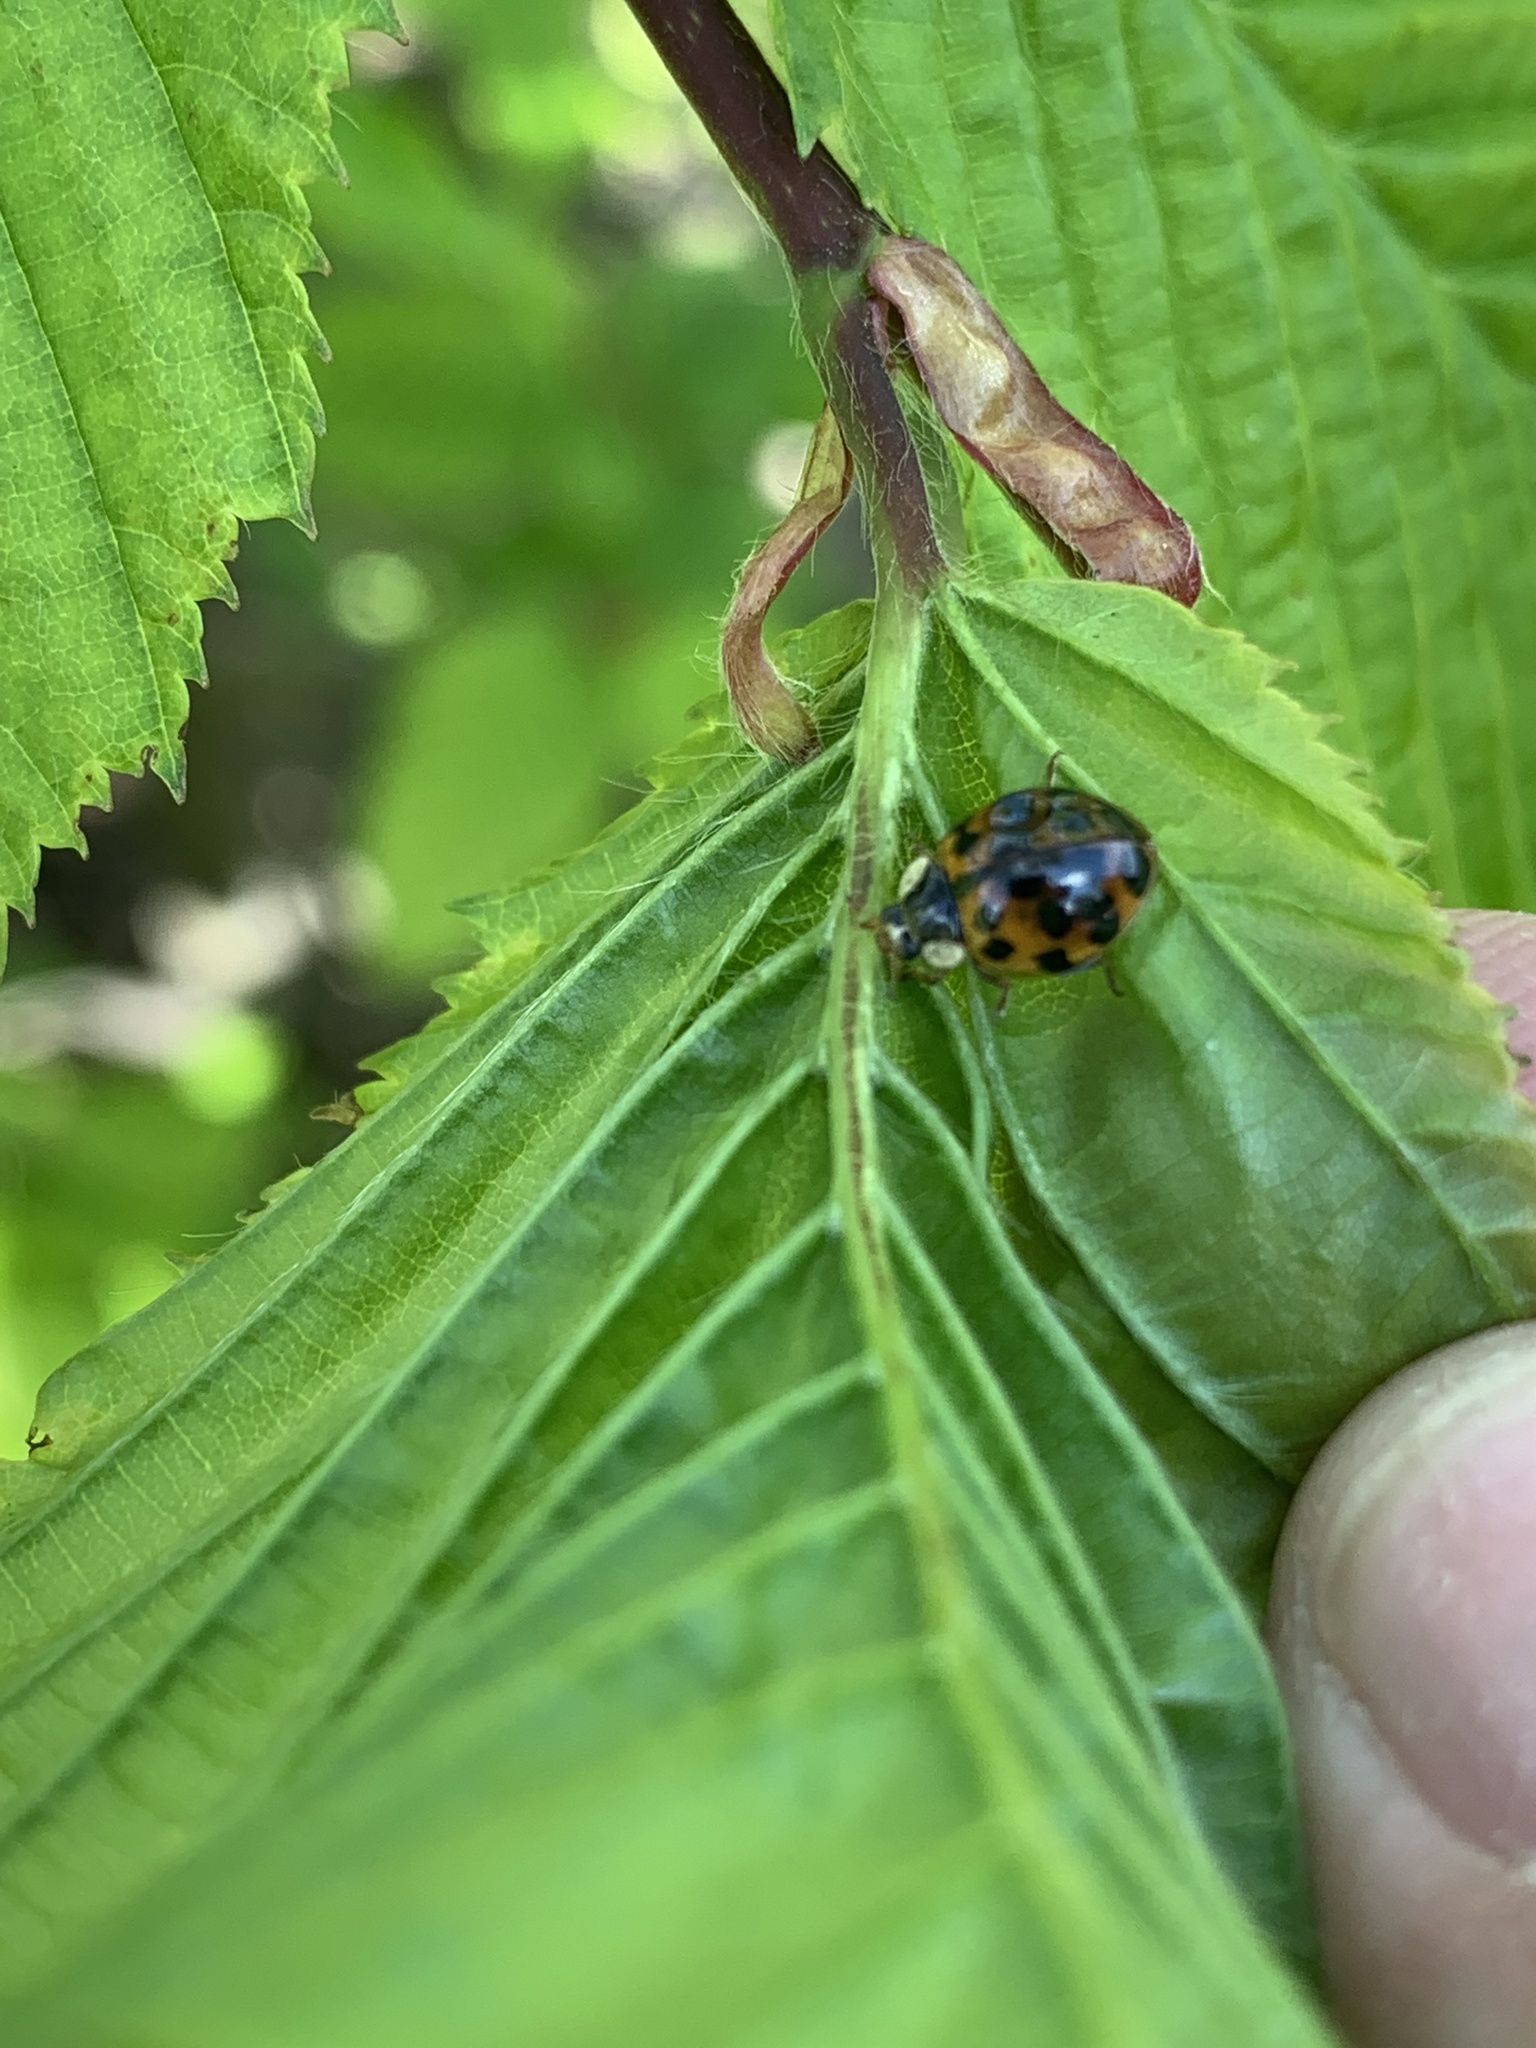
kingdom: Animalia
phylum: Arthropoda
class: Insecta
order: Coleoptera
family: Coccinellidae
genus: Harmonia
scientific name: Harmonia axyridis
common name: Harlequin ladybird
